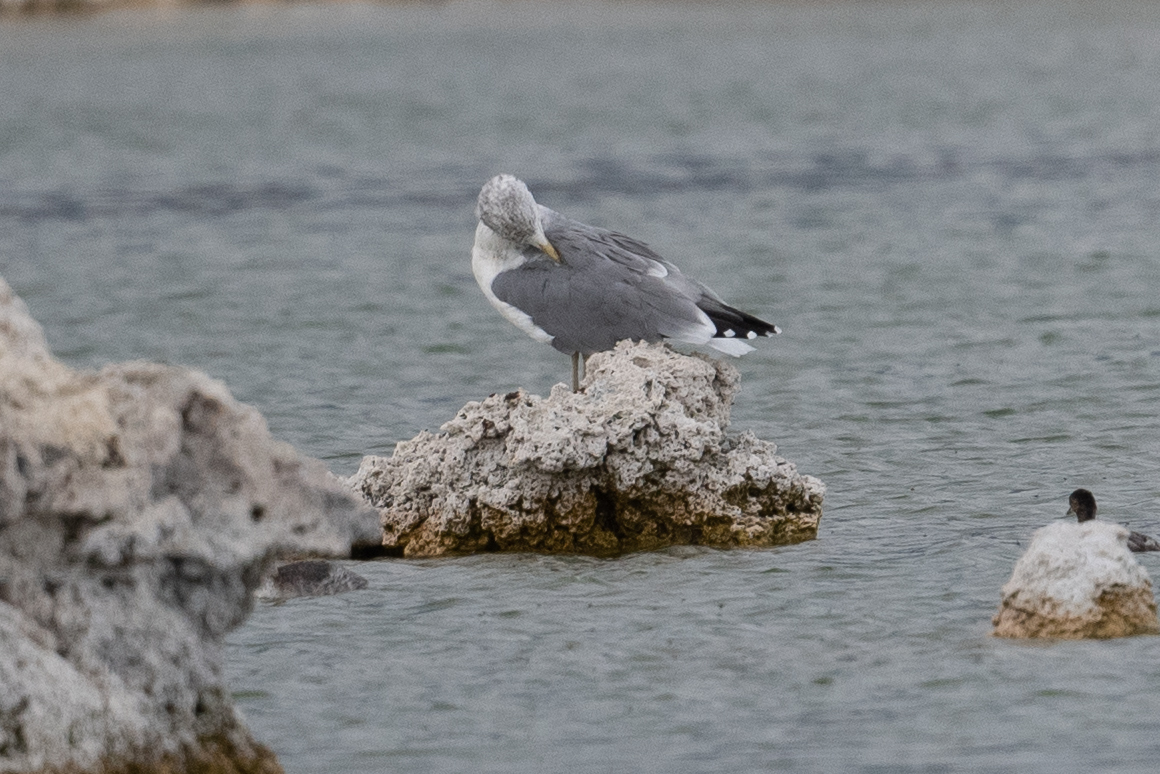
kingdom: Animalia
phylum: Chordata
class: Aves
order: Charadriiformes
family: Laridae
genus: Larus
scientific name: Larus californicus
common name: California gull
